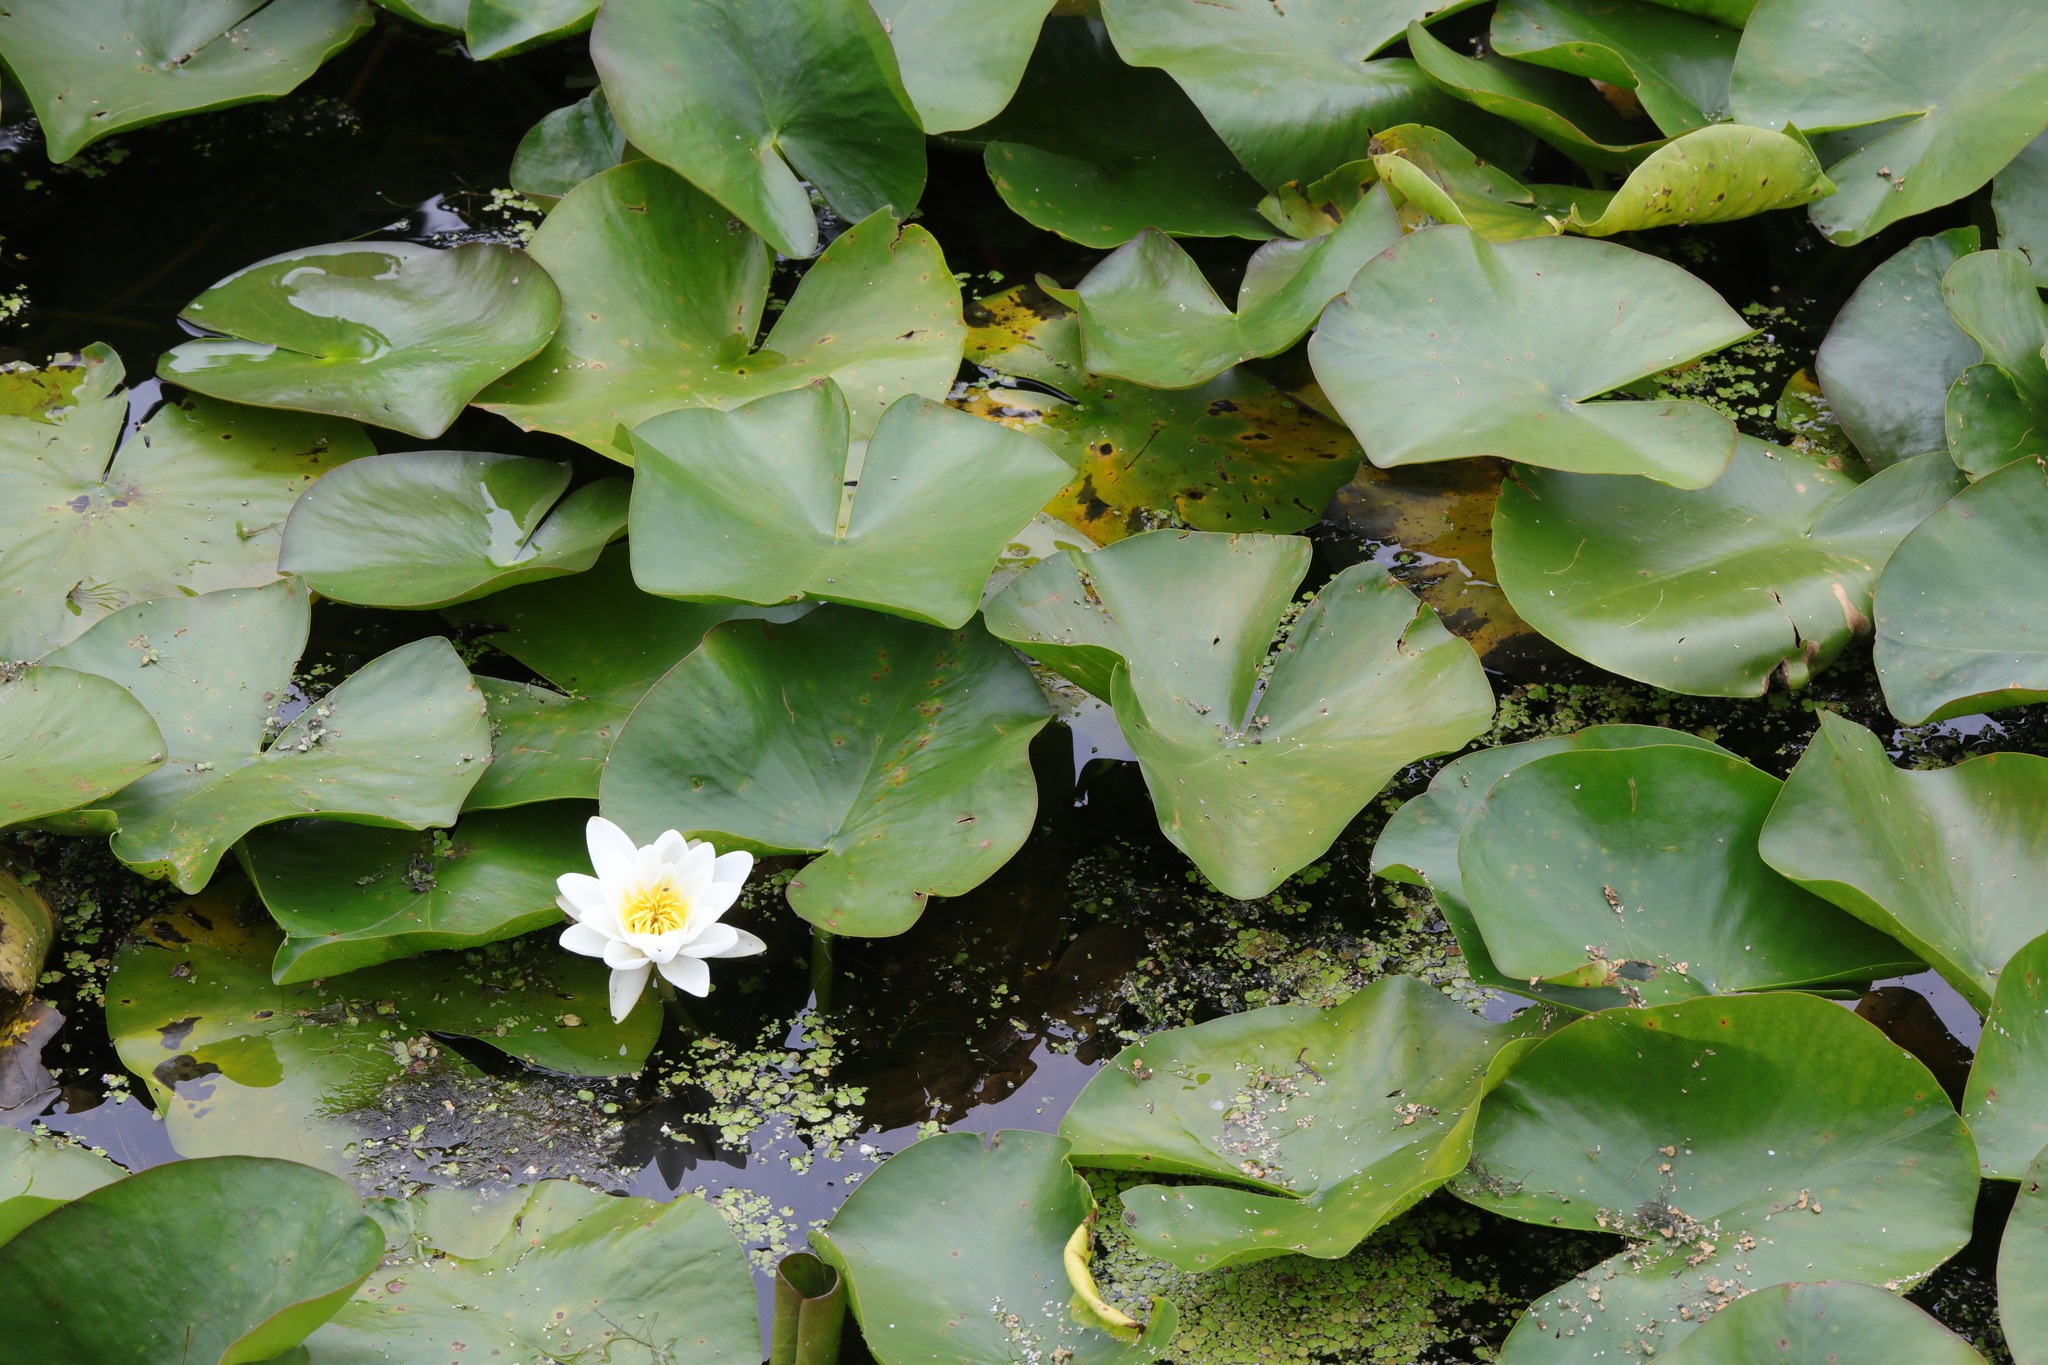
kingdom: Plantae
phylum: Tracheophyta
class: Magnoliopsida
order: Nymphaeales
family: Nymphaeaceae
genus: Nymphaea
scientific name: Nymphaea alba
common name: White water-lily
